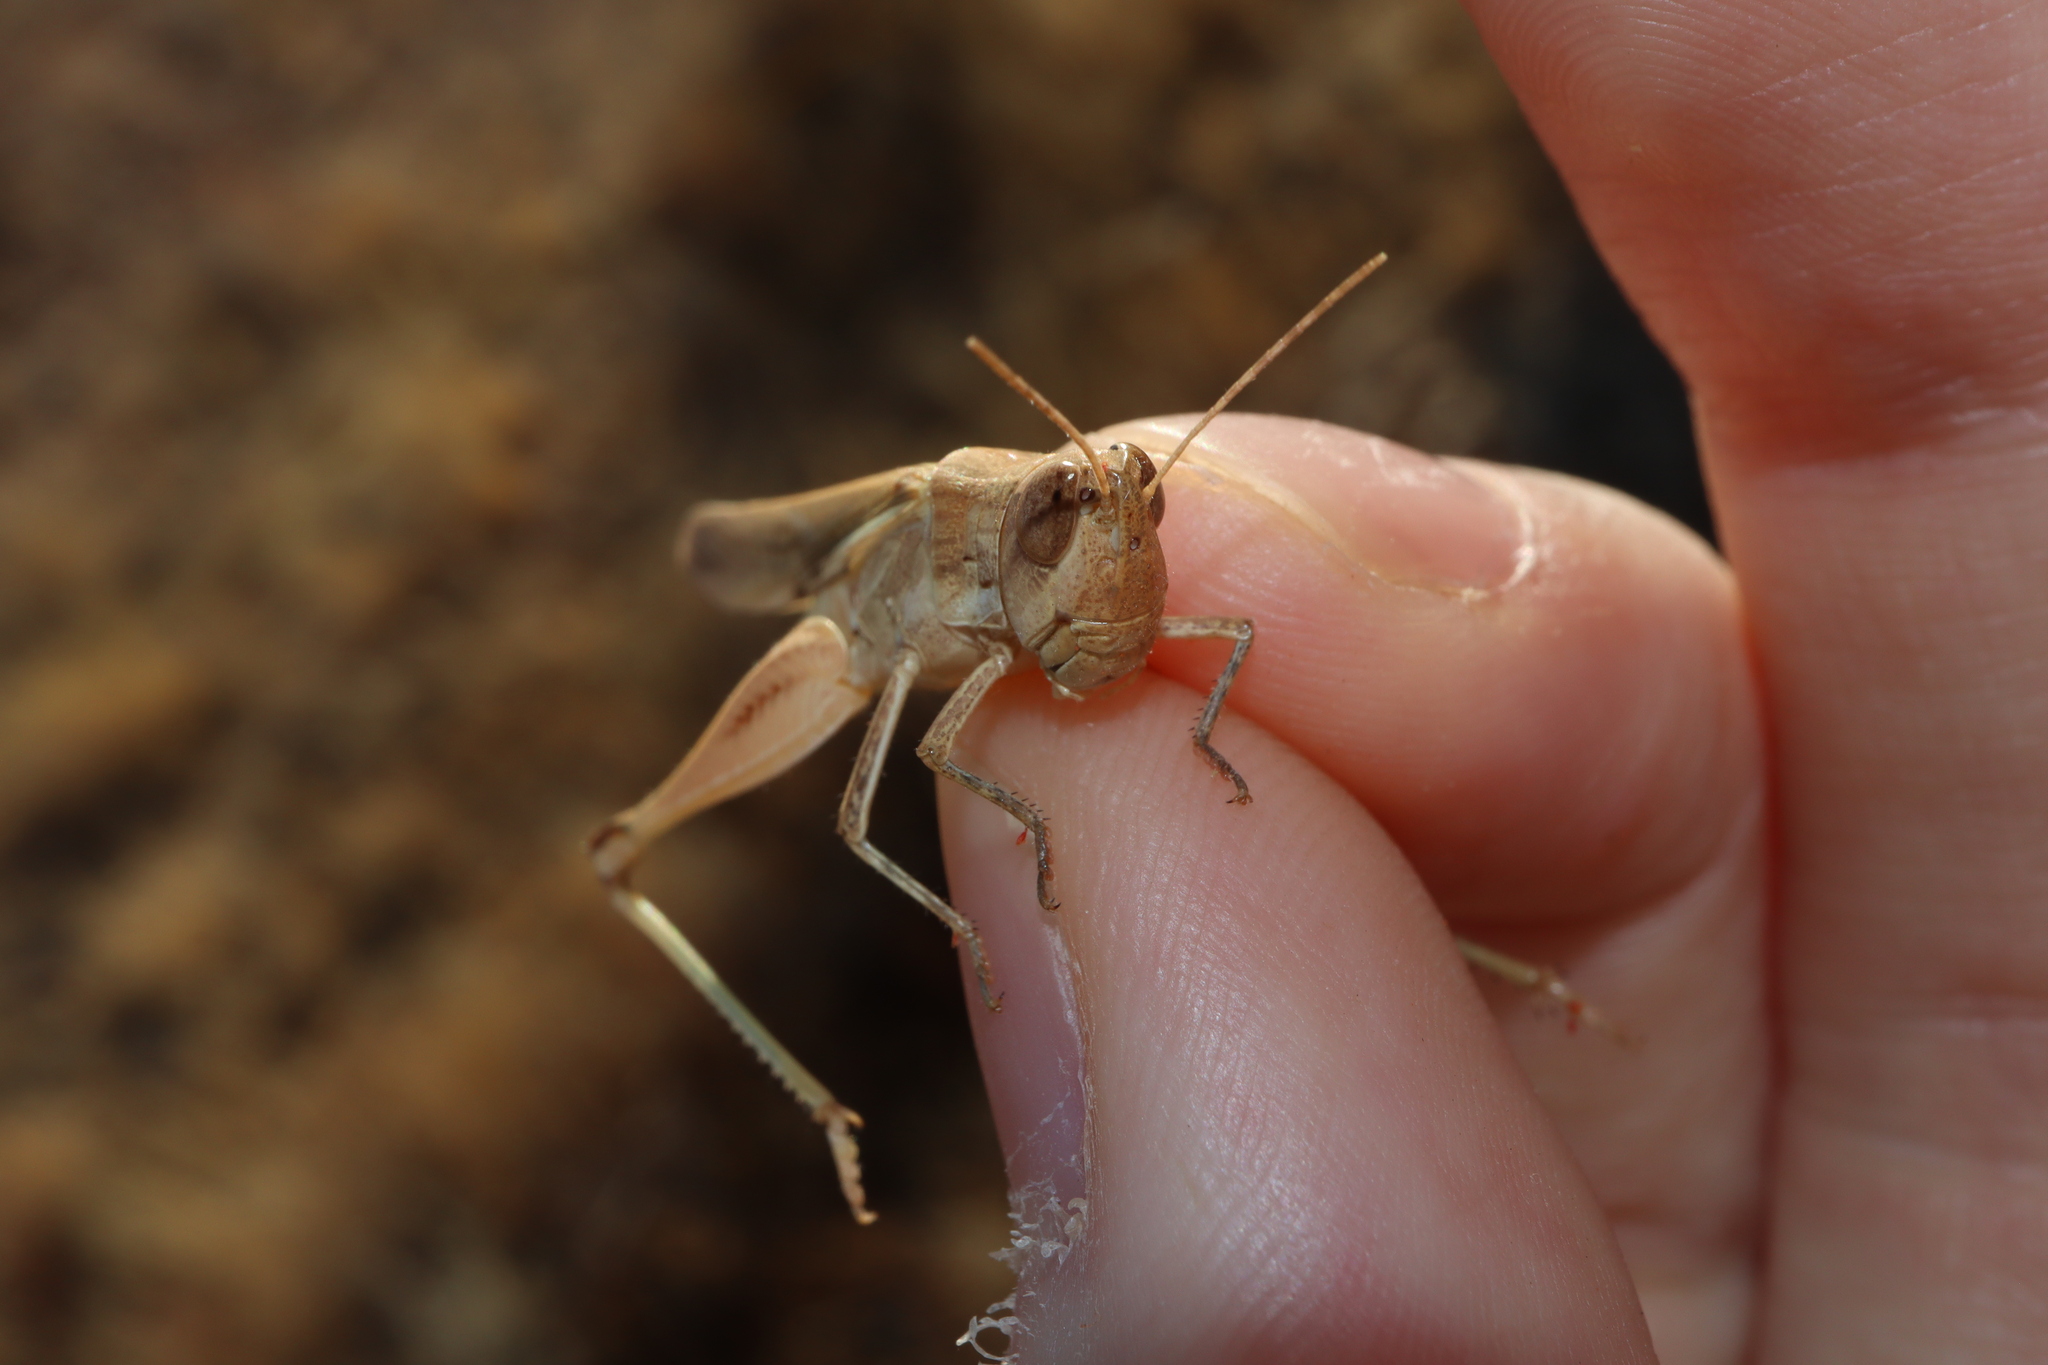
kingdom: Animalia
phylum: Arthropoda
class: Insecta
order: Orthoptera
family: Acrididae
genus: Aiolopus
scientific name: Aiolopus thalassinus
